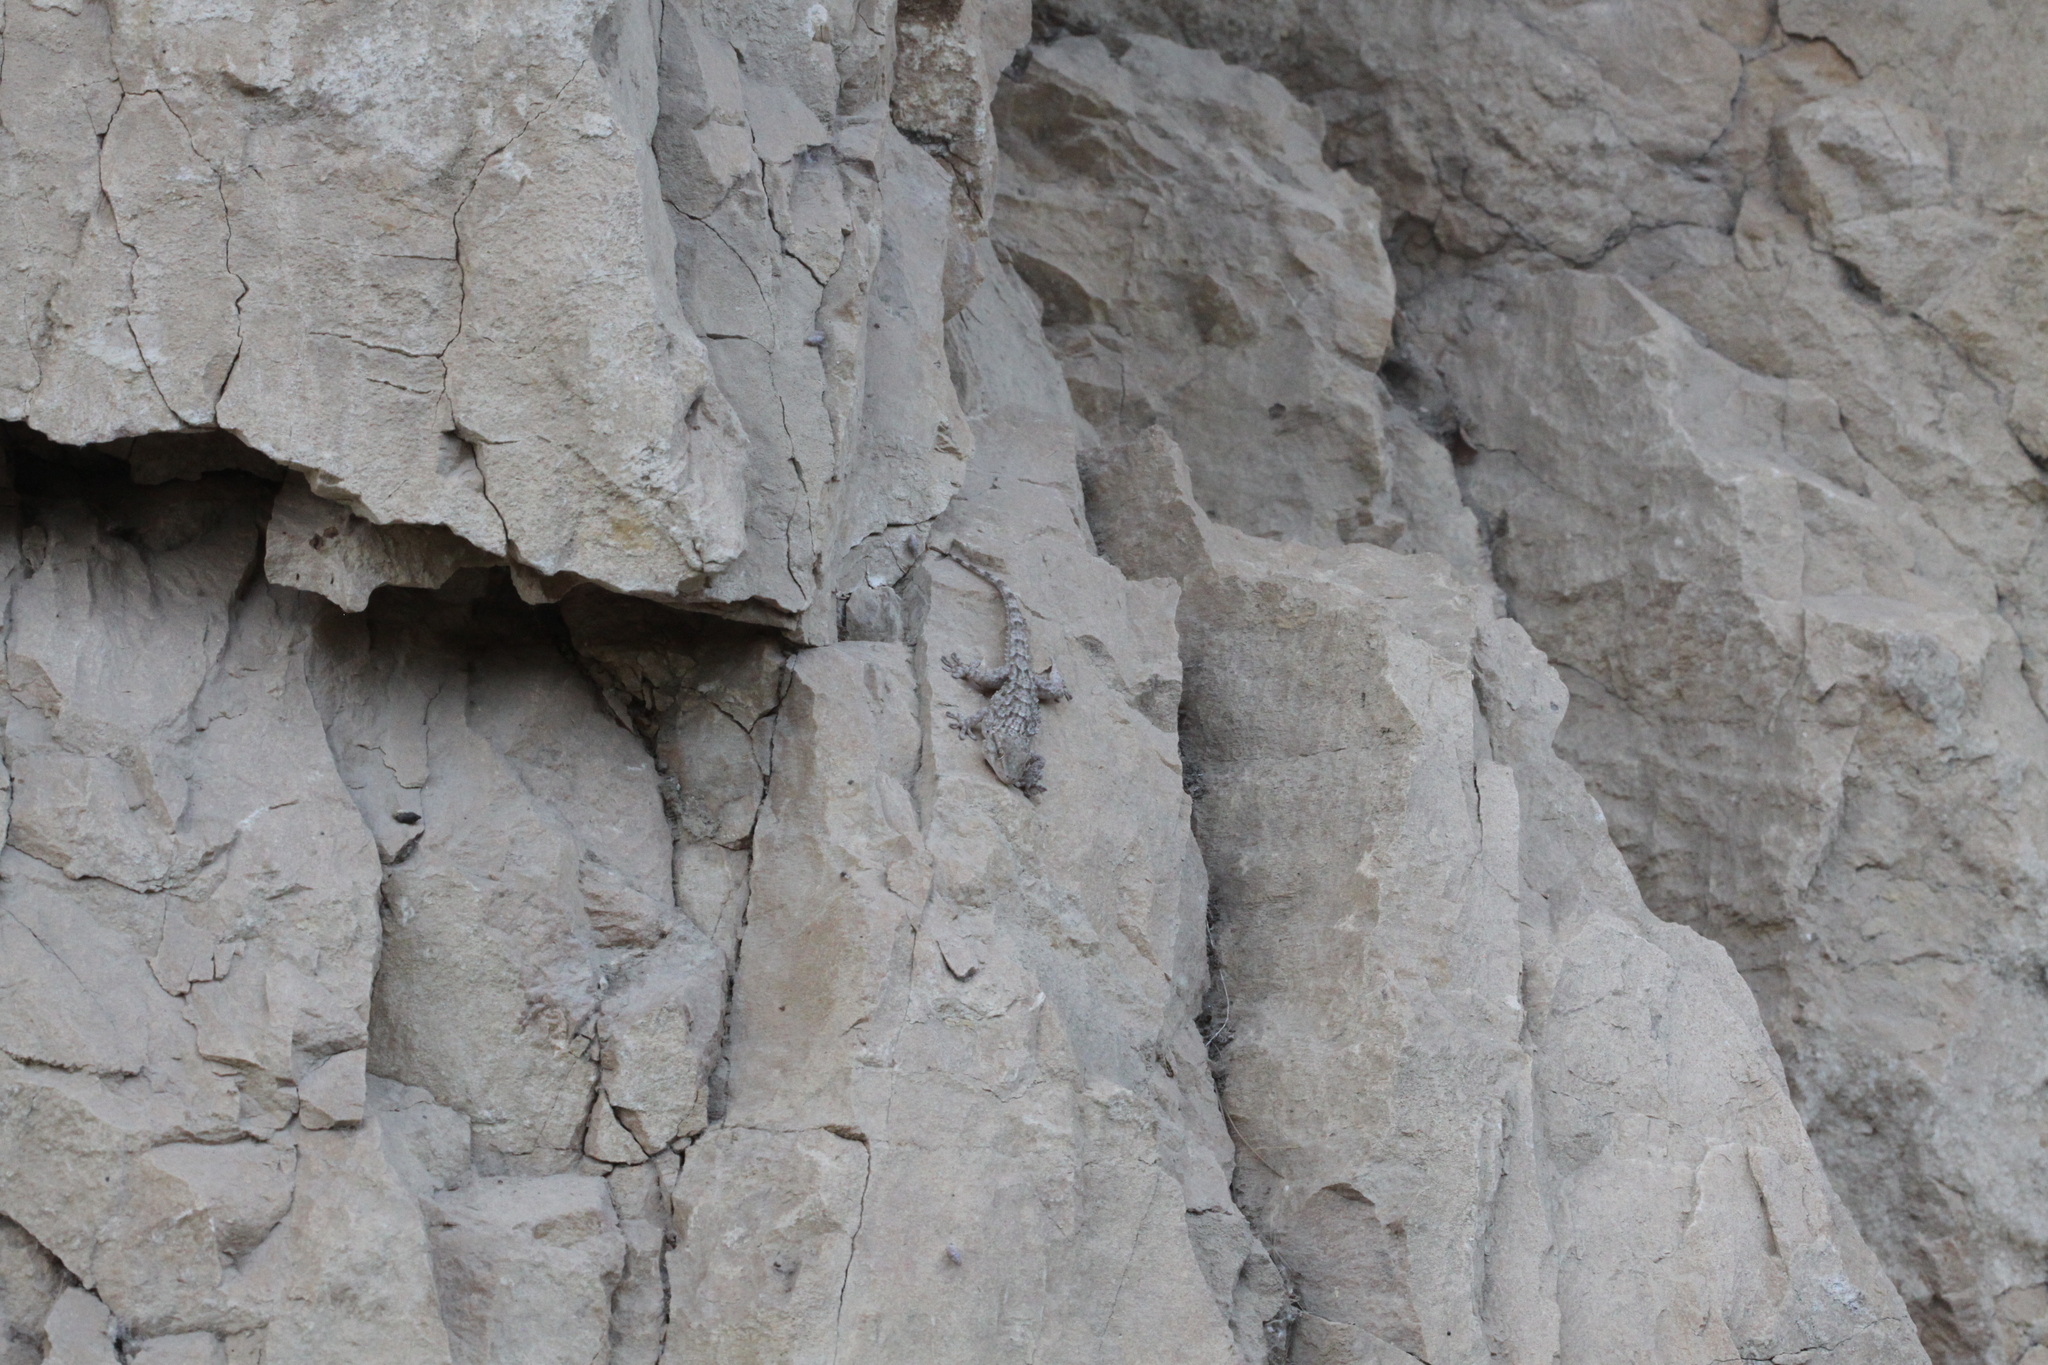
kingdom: Animalia
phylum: Chordata
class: Squamata
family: Phyllodactylidae
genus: Tarentola
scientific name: Tarentola mauritanica
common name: Moorish gecko
